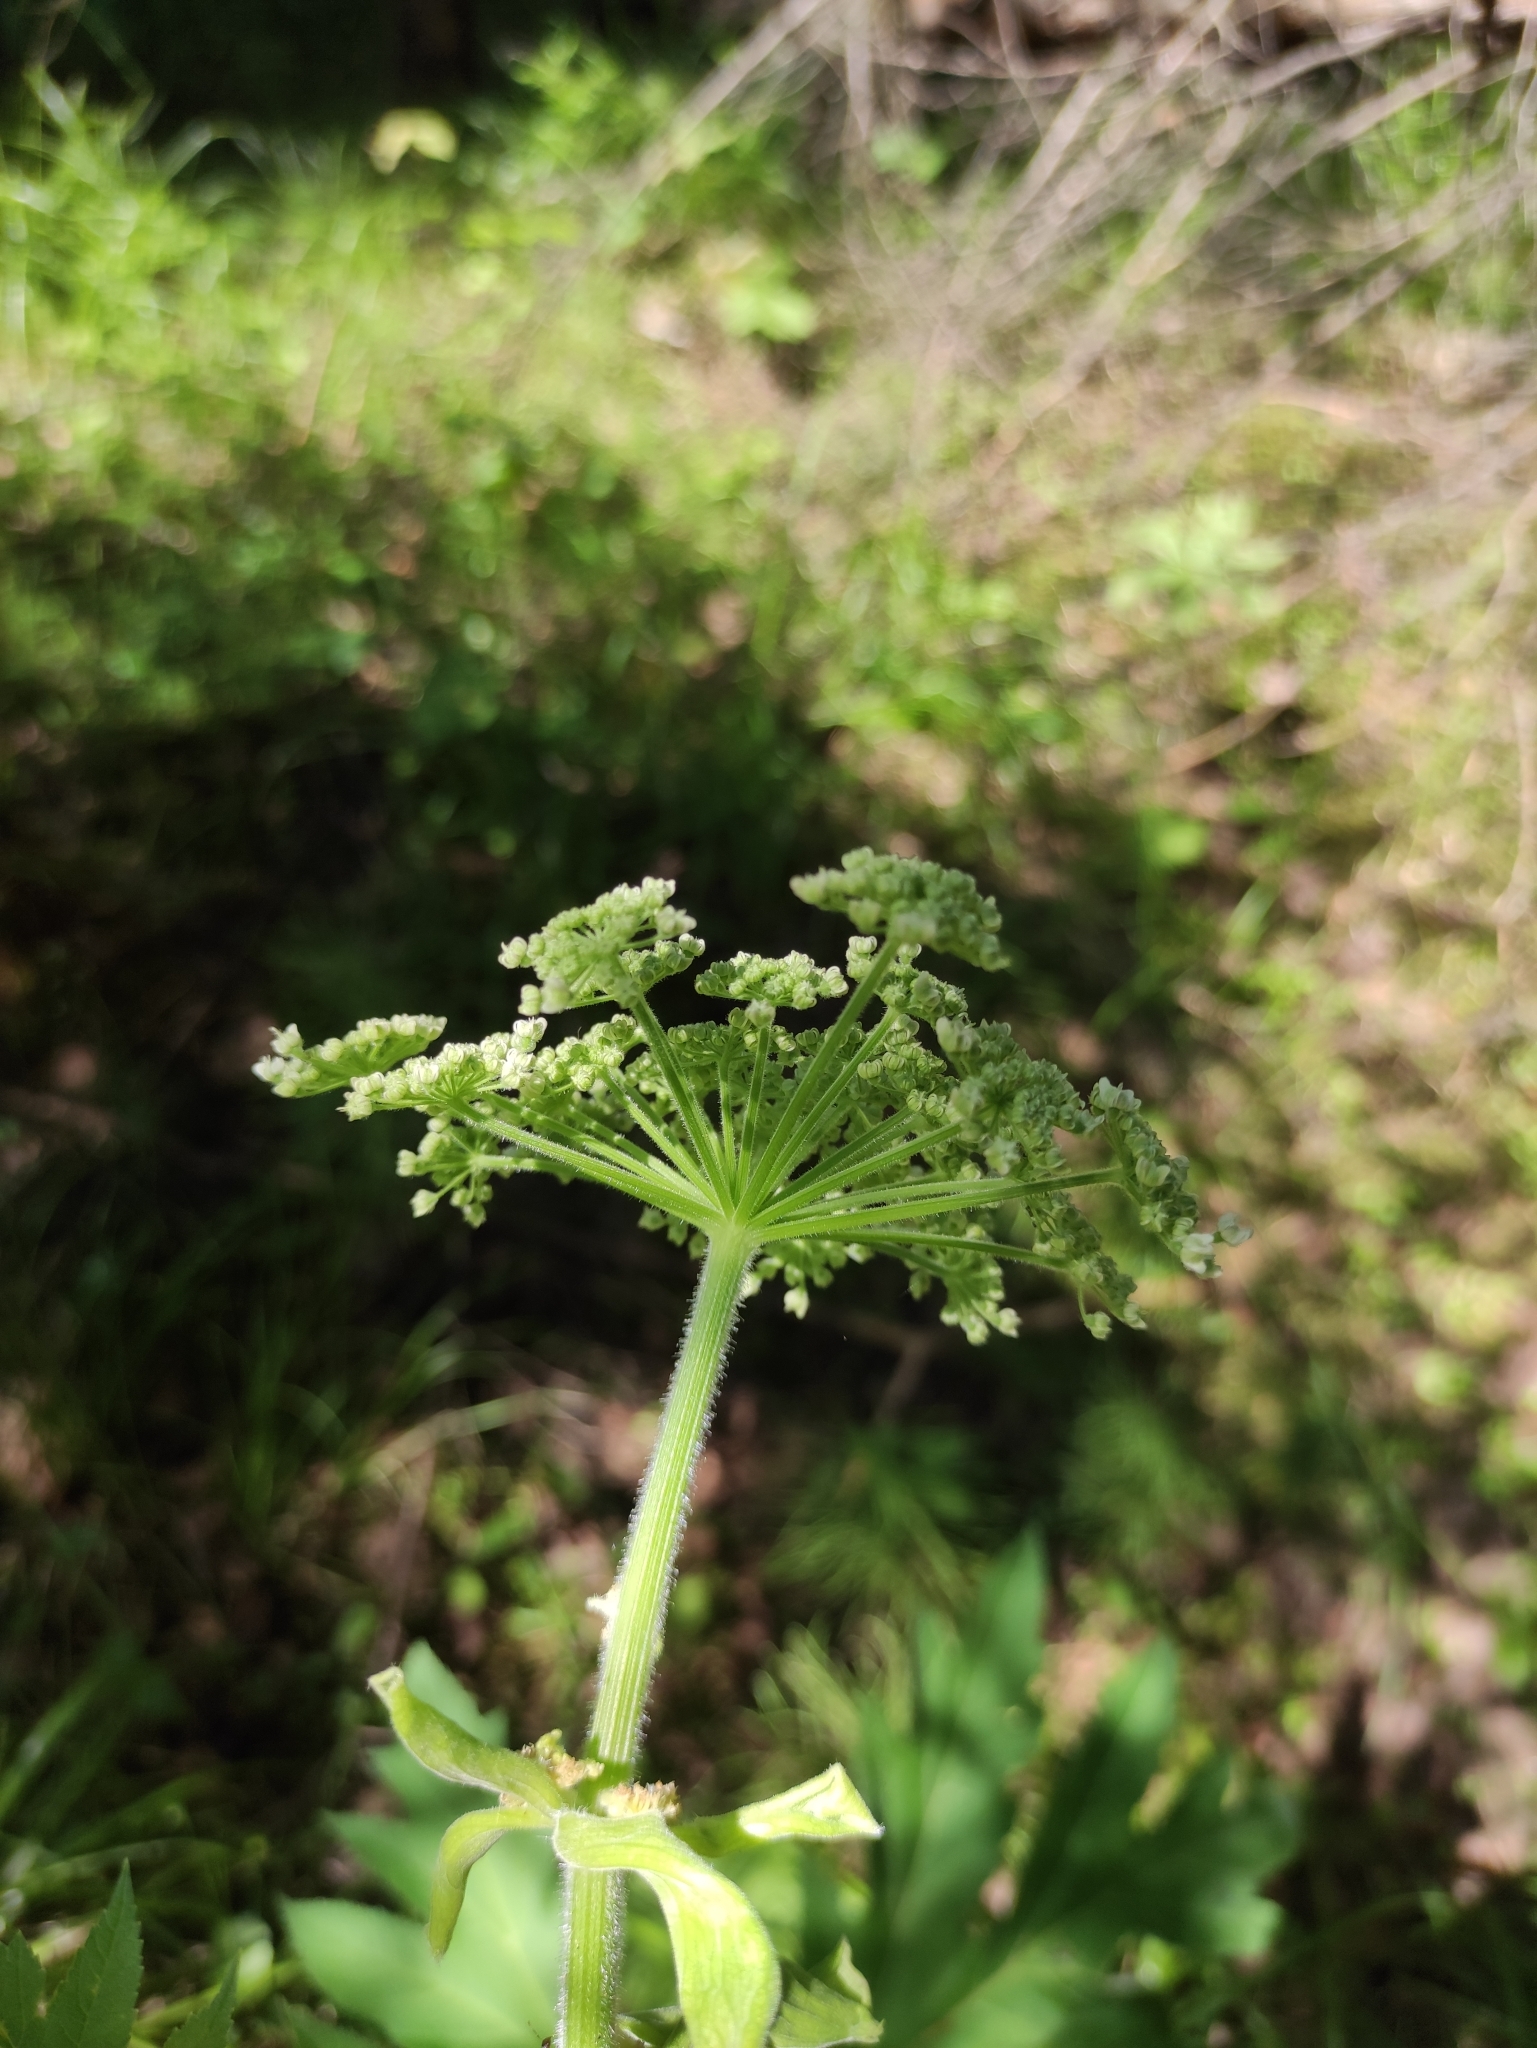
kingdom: Plantae
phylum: Tracheophyta
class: Magnoliopsida
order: Apiales
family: Apiaceae
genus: Heracleum
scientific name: Heracleum dissectum
